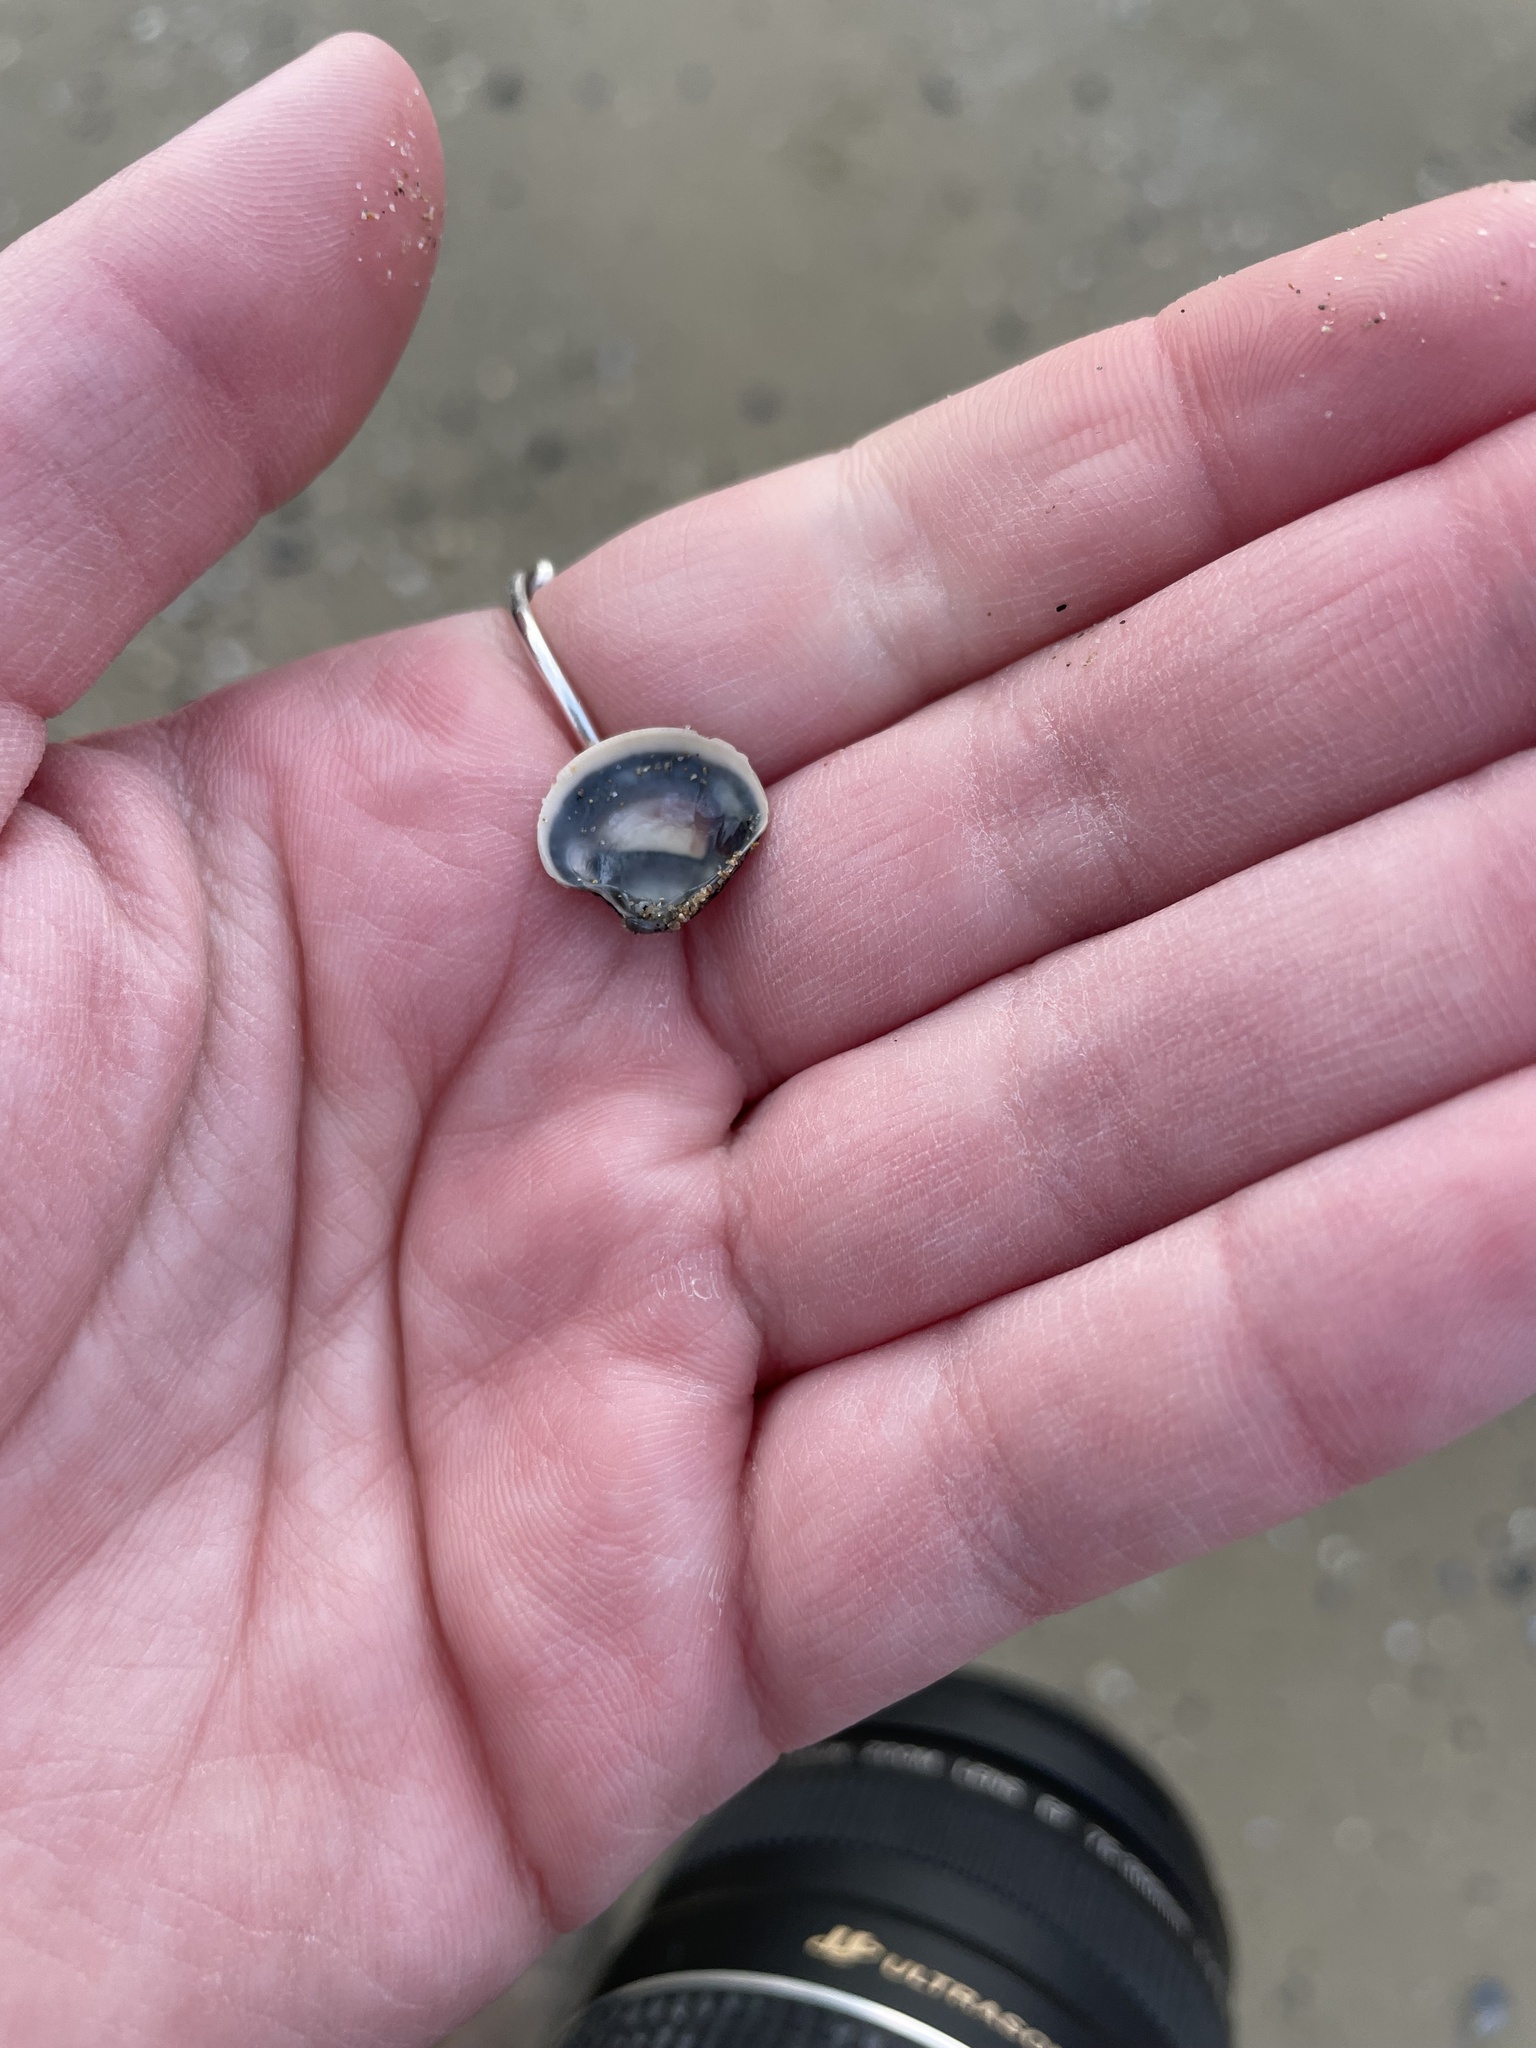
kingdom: Animalia
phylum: Mollusca
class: Bivalvia
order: Venerida
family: Veneridae
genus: Chamelea
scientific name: Chamelea gallina
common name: Chicken venus
